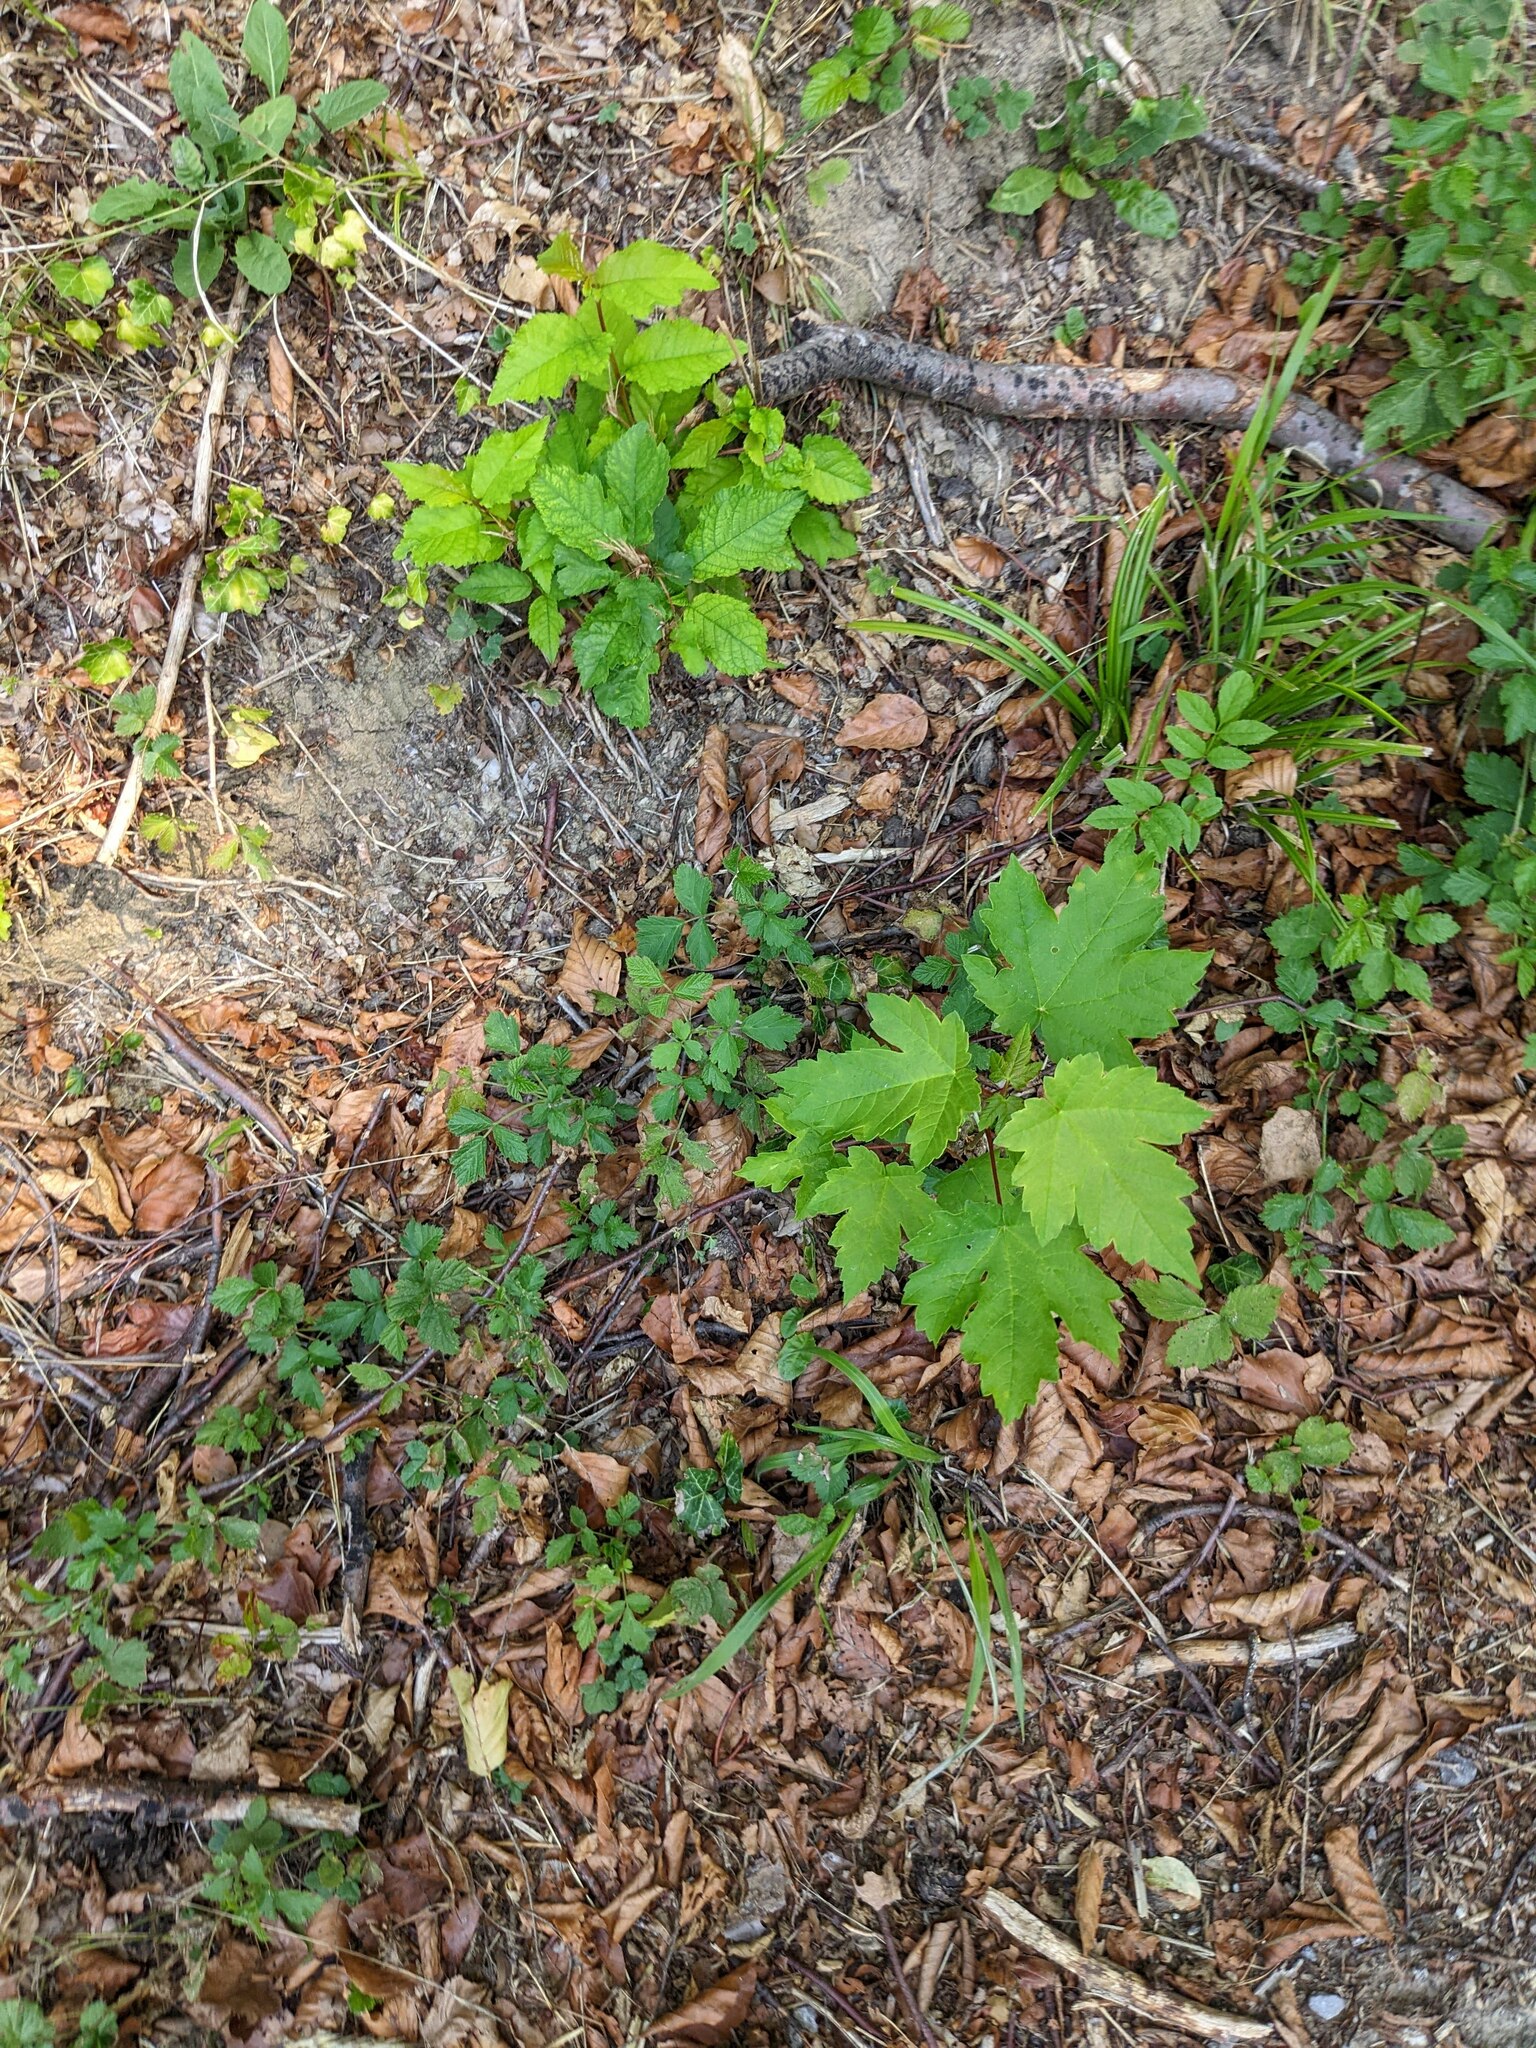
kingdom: Plantae
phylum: Tracheophyta
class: Magnoliopsida
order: Sapindales
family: Sapindaceae
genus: Acer
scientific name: Acer pseudoplatanus
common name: Sycamore
